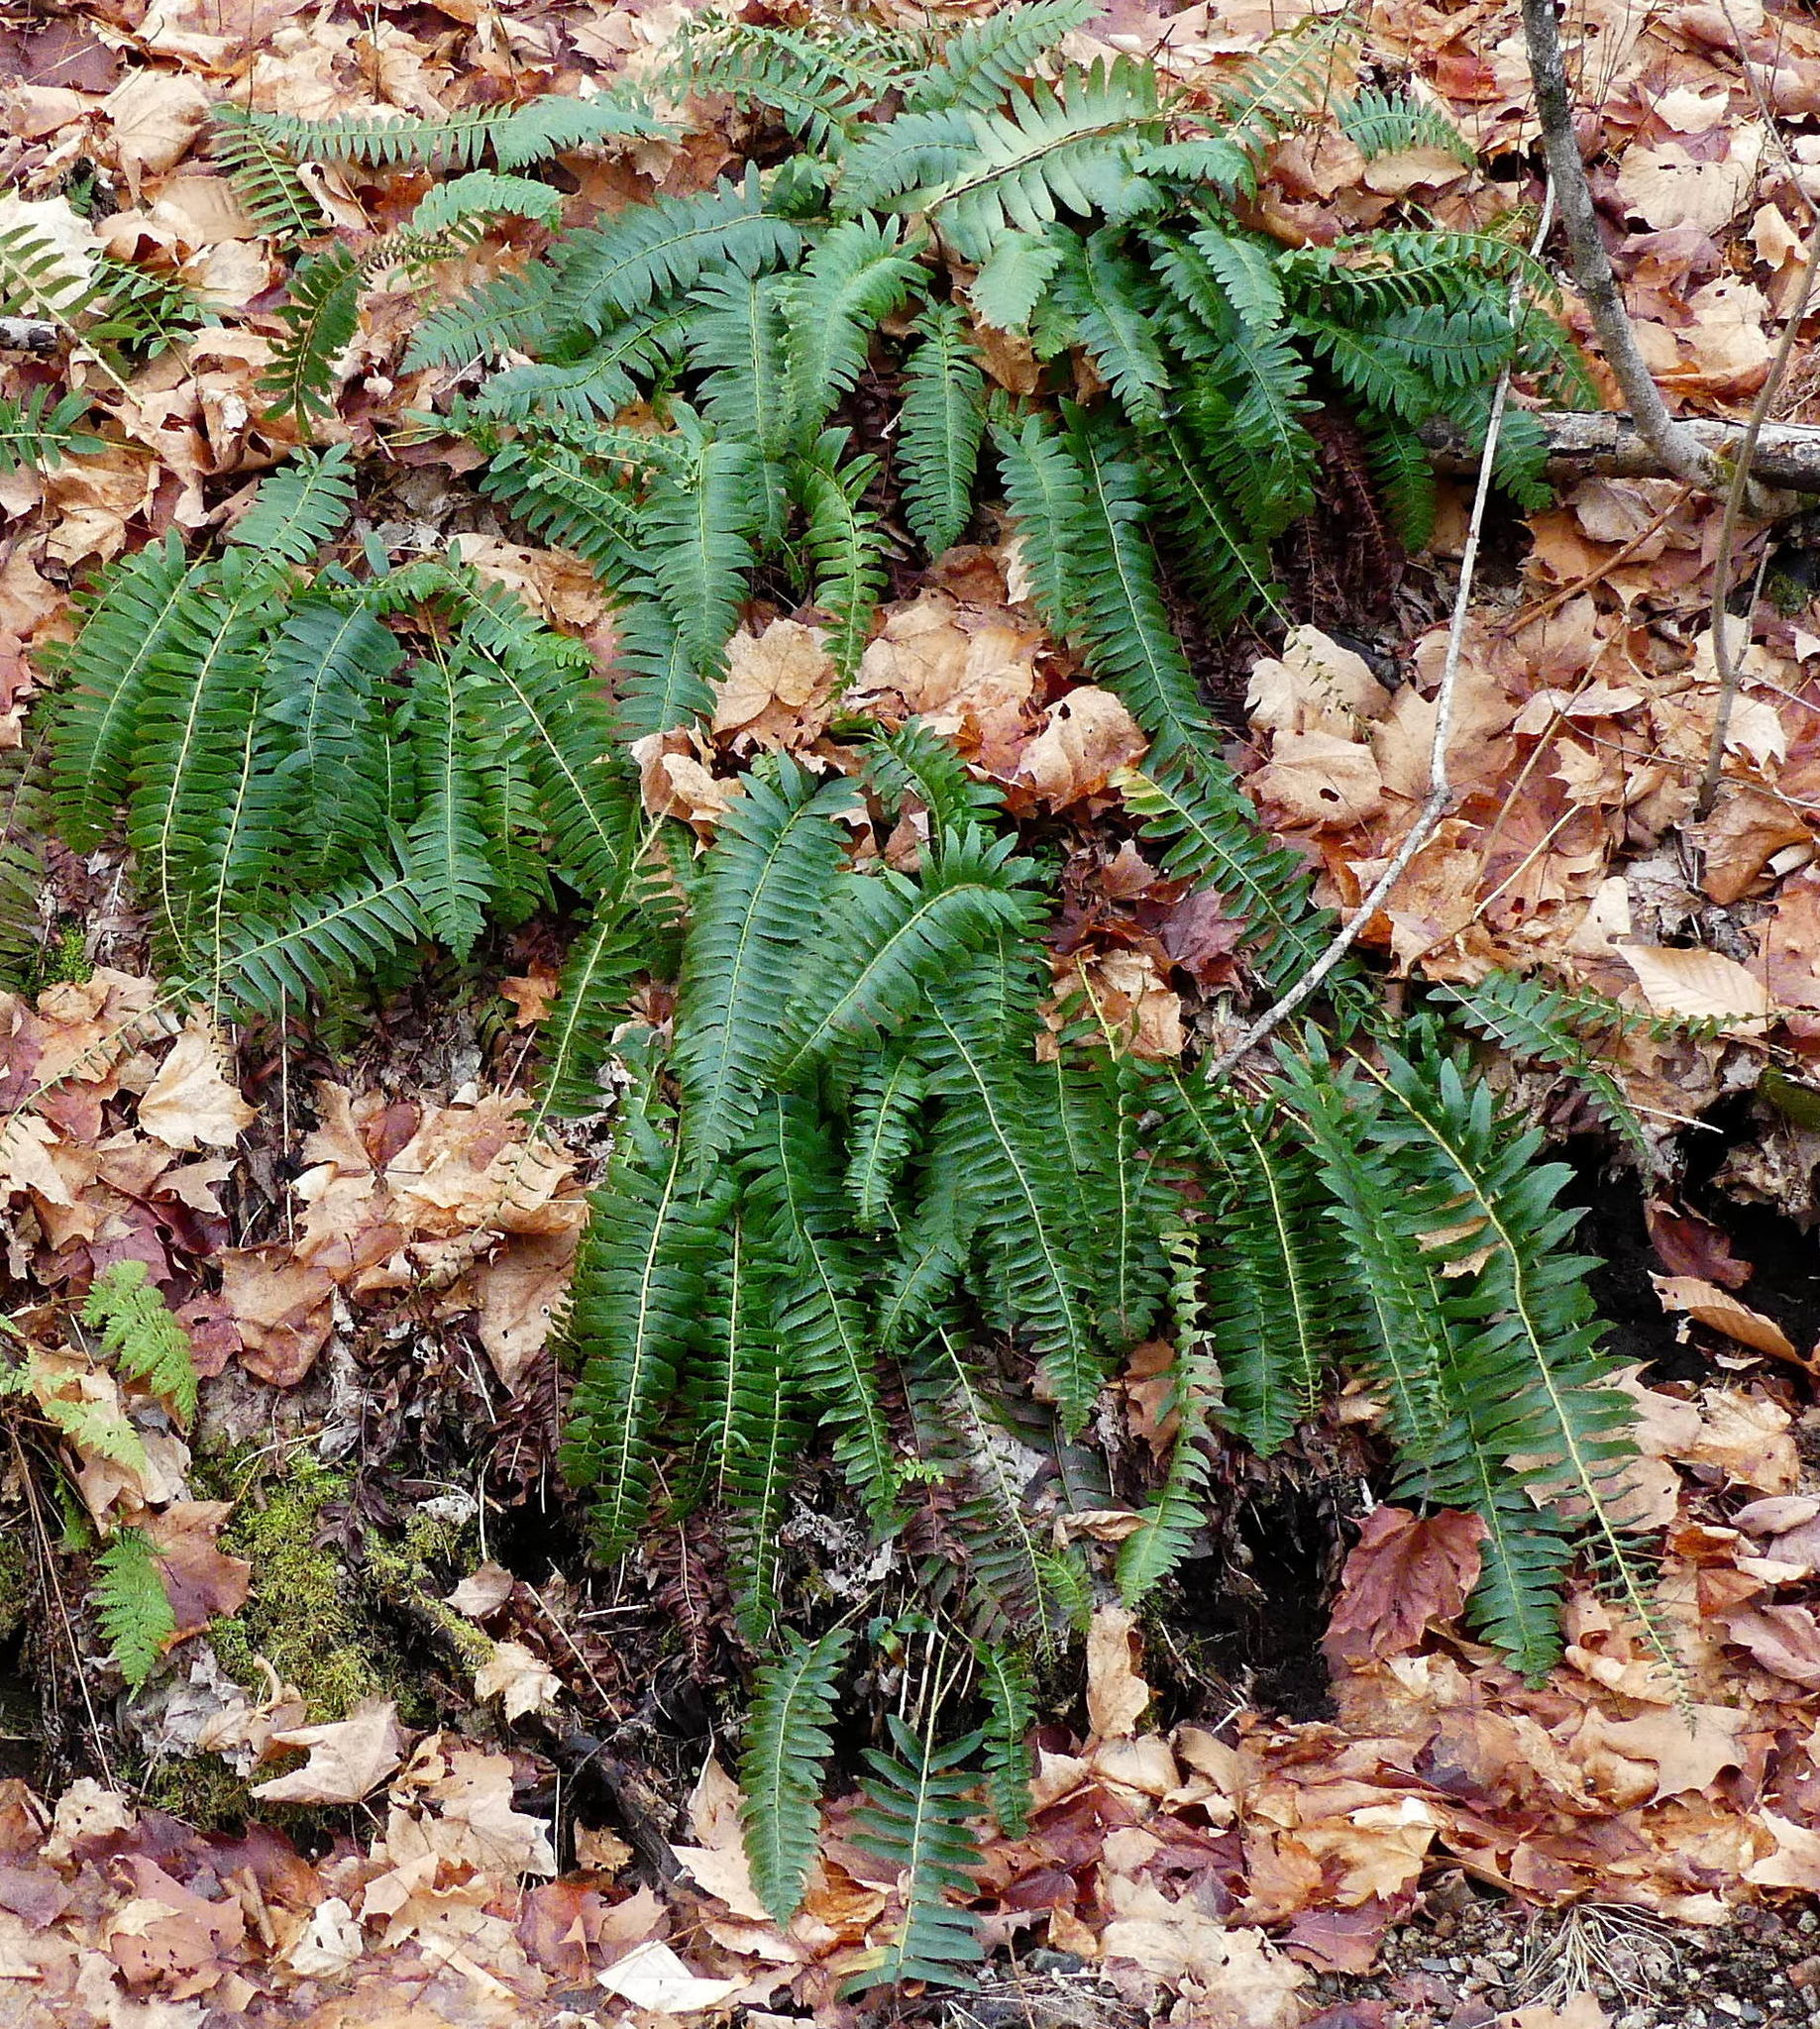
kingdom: Plantae
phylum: Tracheophyta
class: Polypodiopsida
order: Polypodiales
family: Dryopteridaceae
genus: Polystichum
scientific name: Polystichum acrostichoides
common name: Christmas fern
